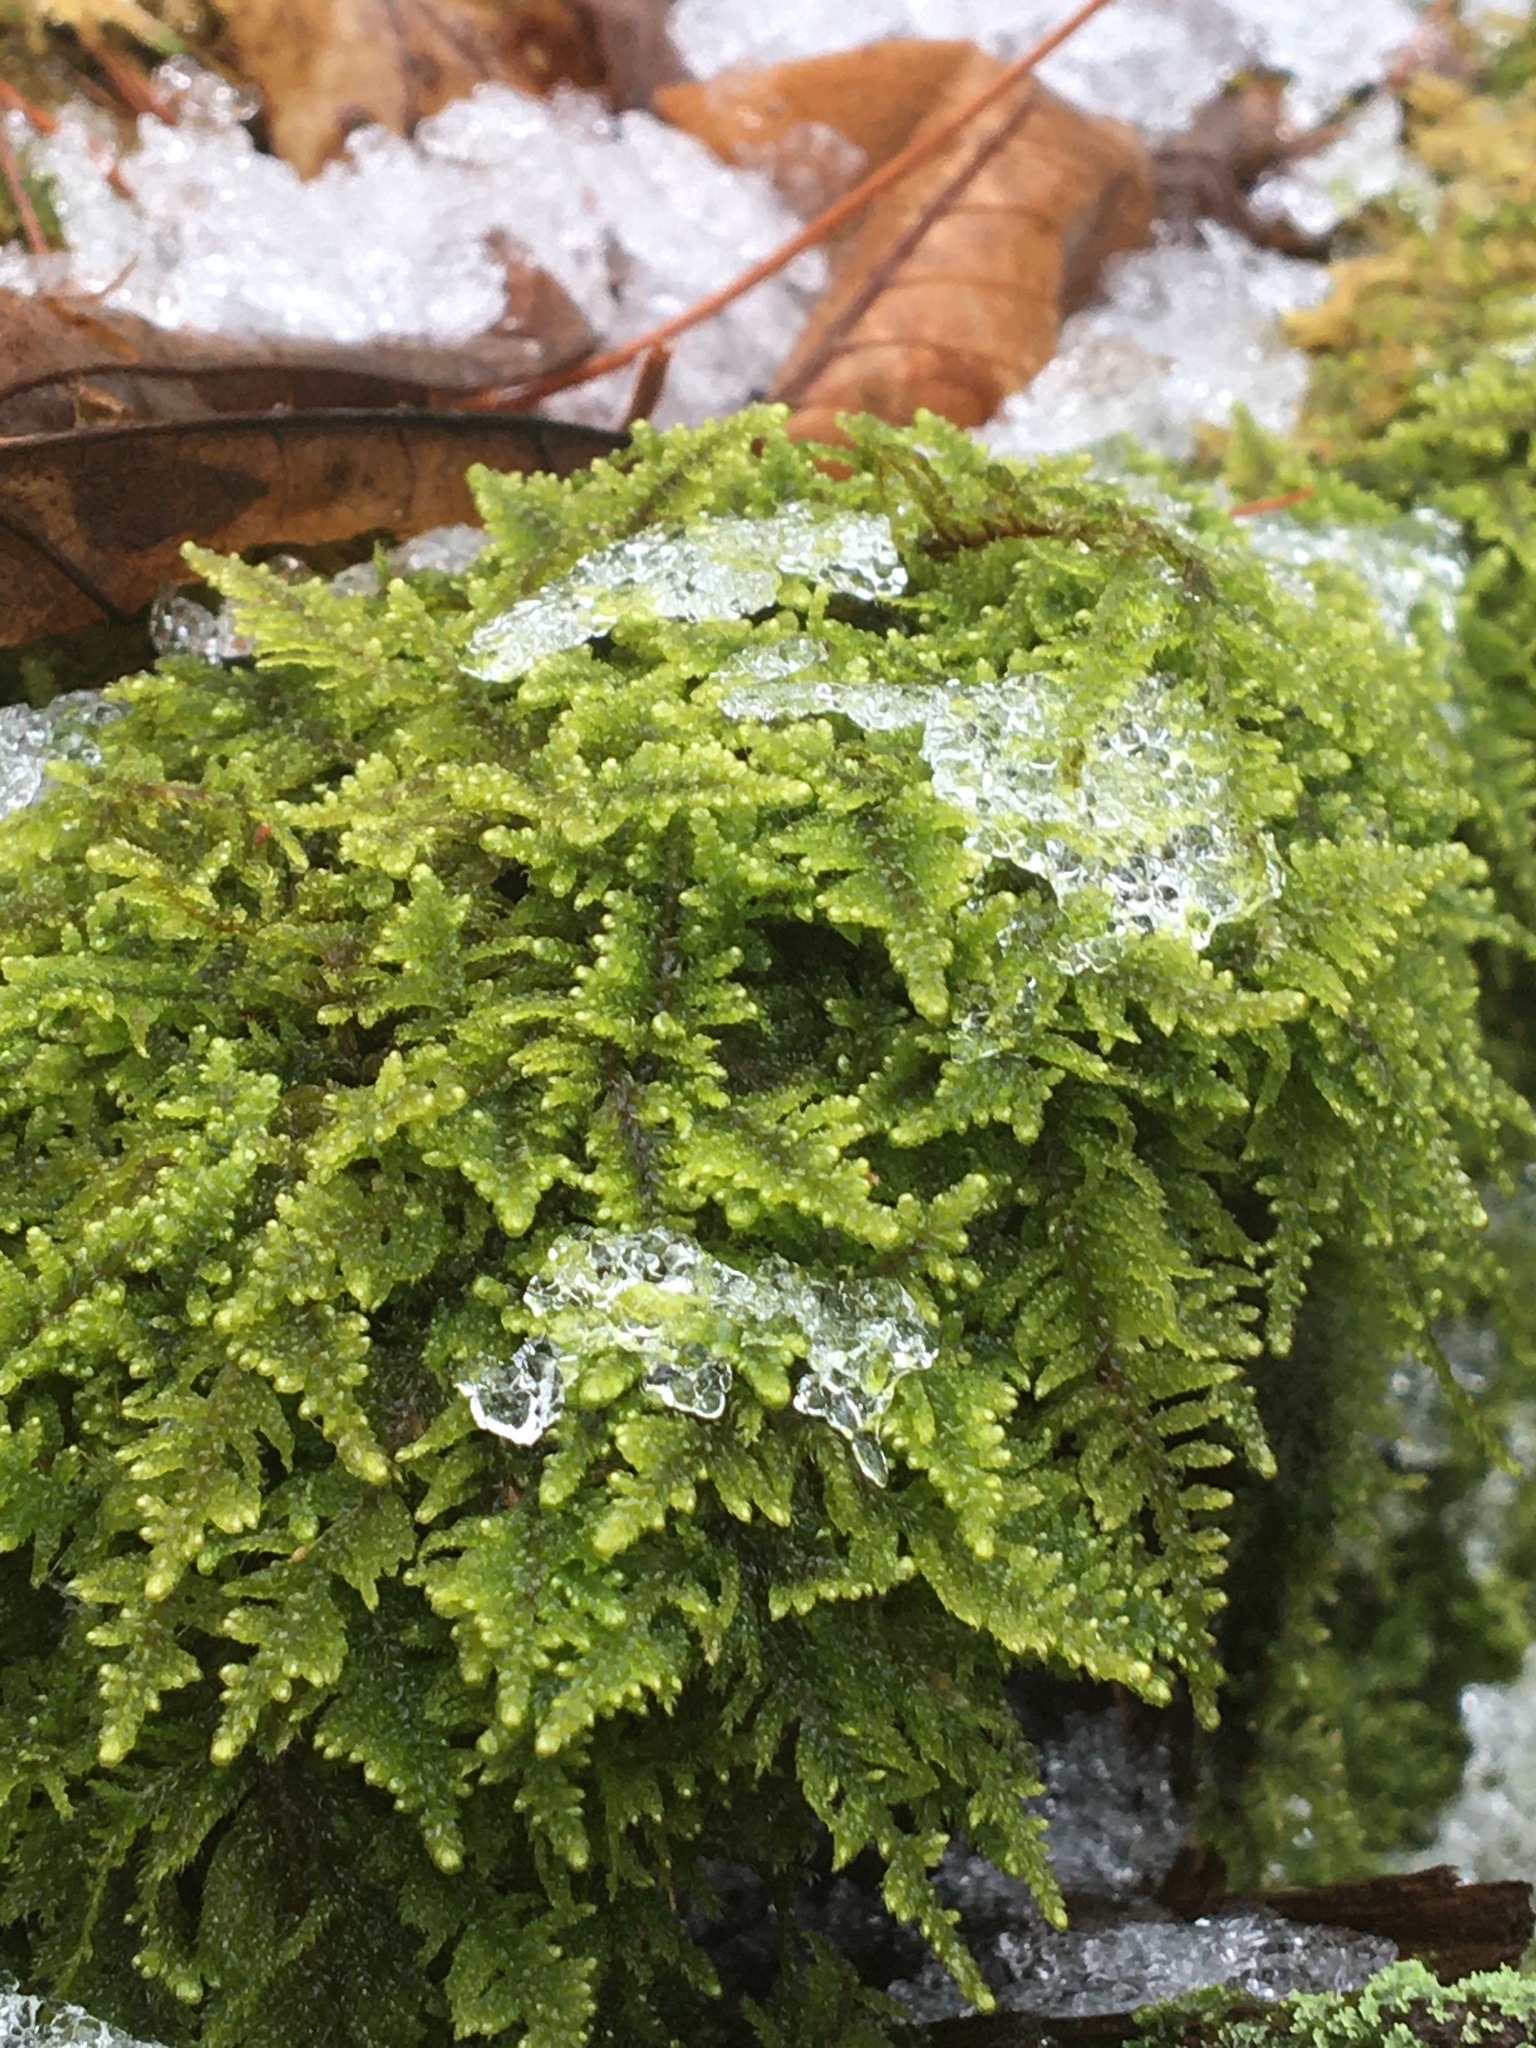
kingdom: Plantae
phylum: Bryophyta
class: Bryopsida
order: Hypnales
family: Callicladiaceae
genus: Callicladium
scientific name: Callicladium imponens
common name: Brocade moss
